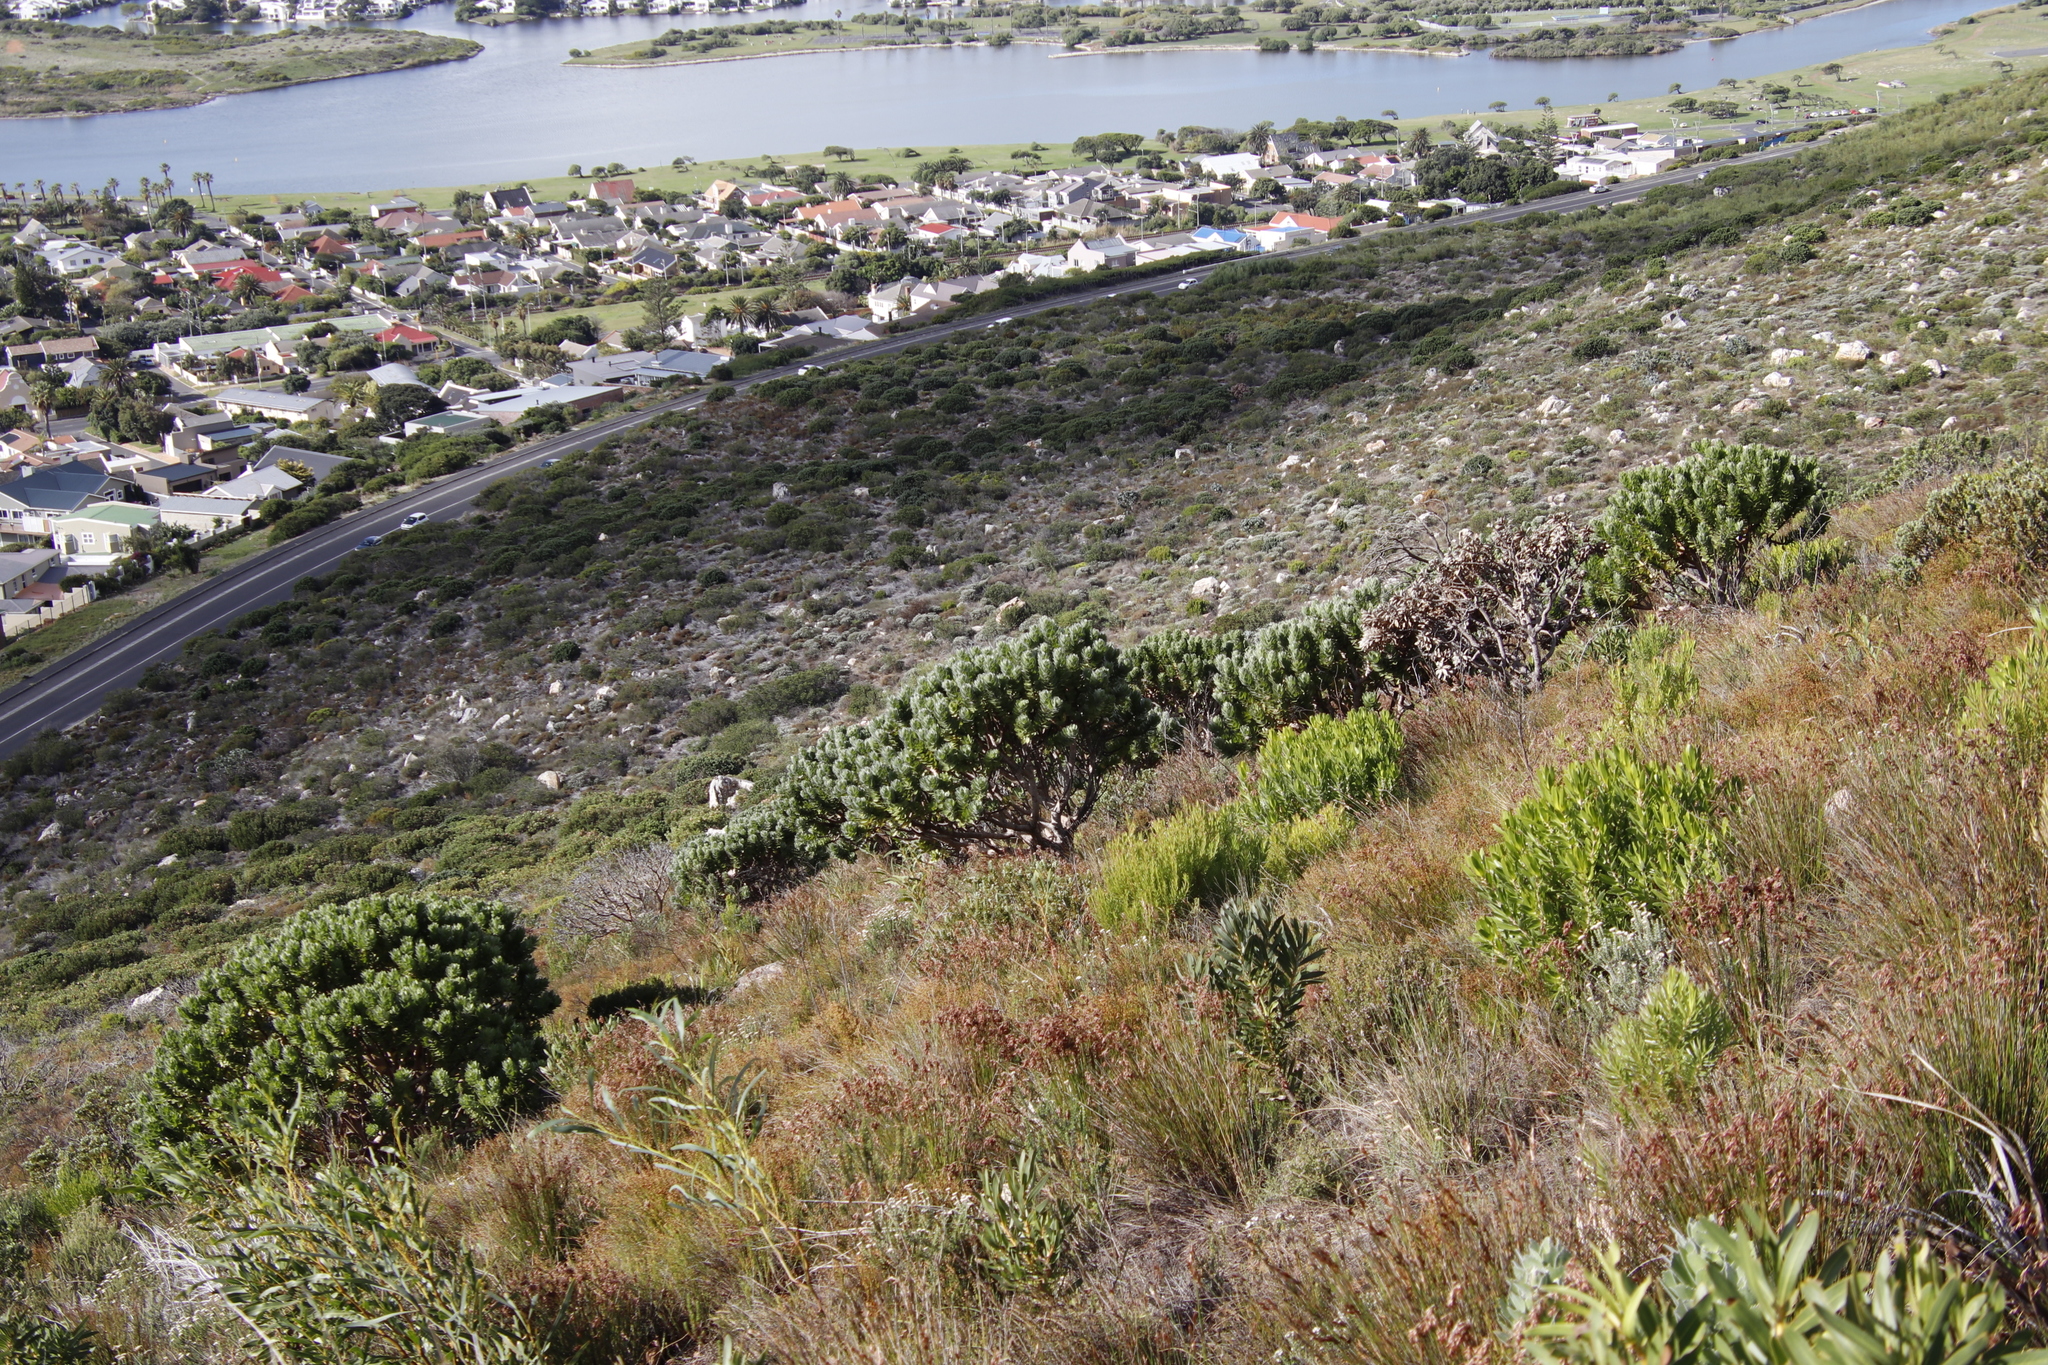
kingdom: Plantae
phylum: Tracheophyta
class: Magnoliopsida
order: Proteales
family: Proteaceae
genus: Leucospermum
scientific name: Leucospermum conocarpodendron
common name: Tree pincushion
